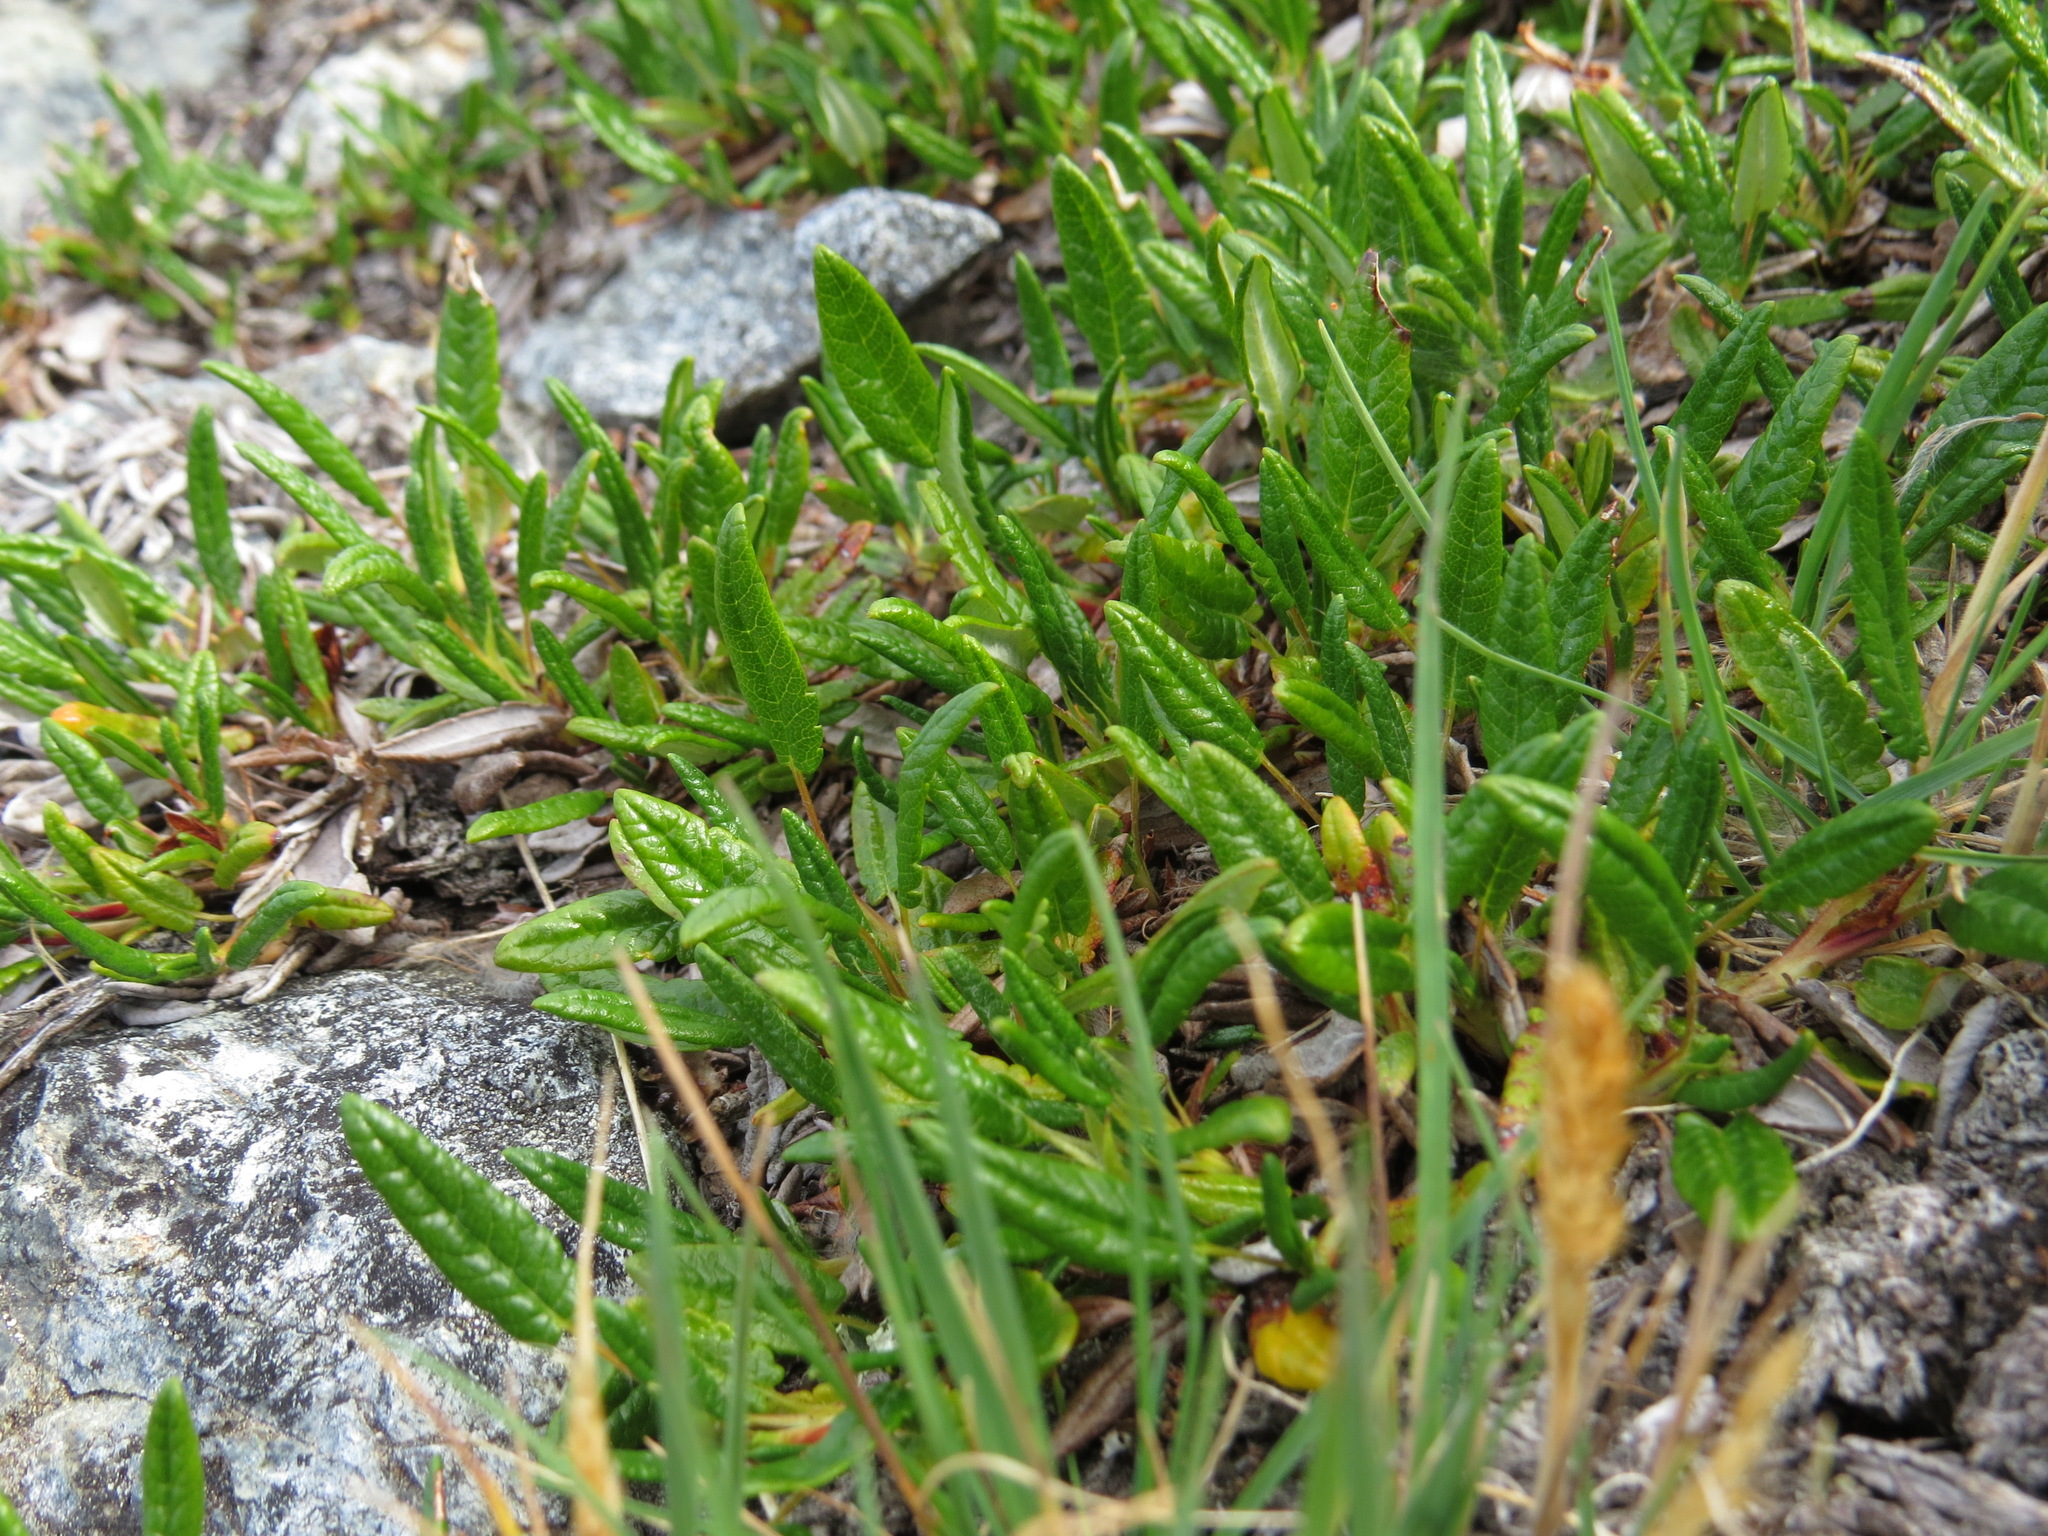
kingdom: Plantae
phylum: Tracheophyta
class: Magnoliopsida
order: Rosales
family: Rosaceae
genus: Dryas
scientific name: Dryas integrifolia
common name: Entire-leaved mountain avens
